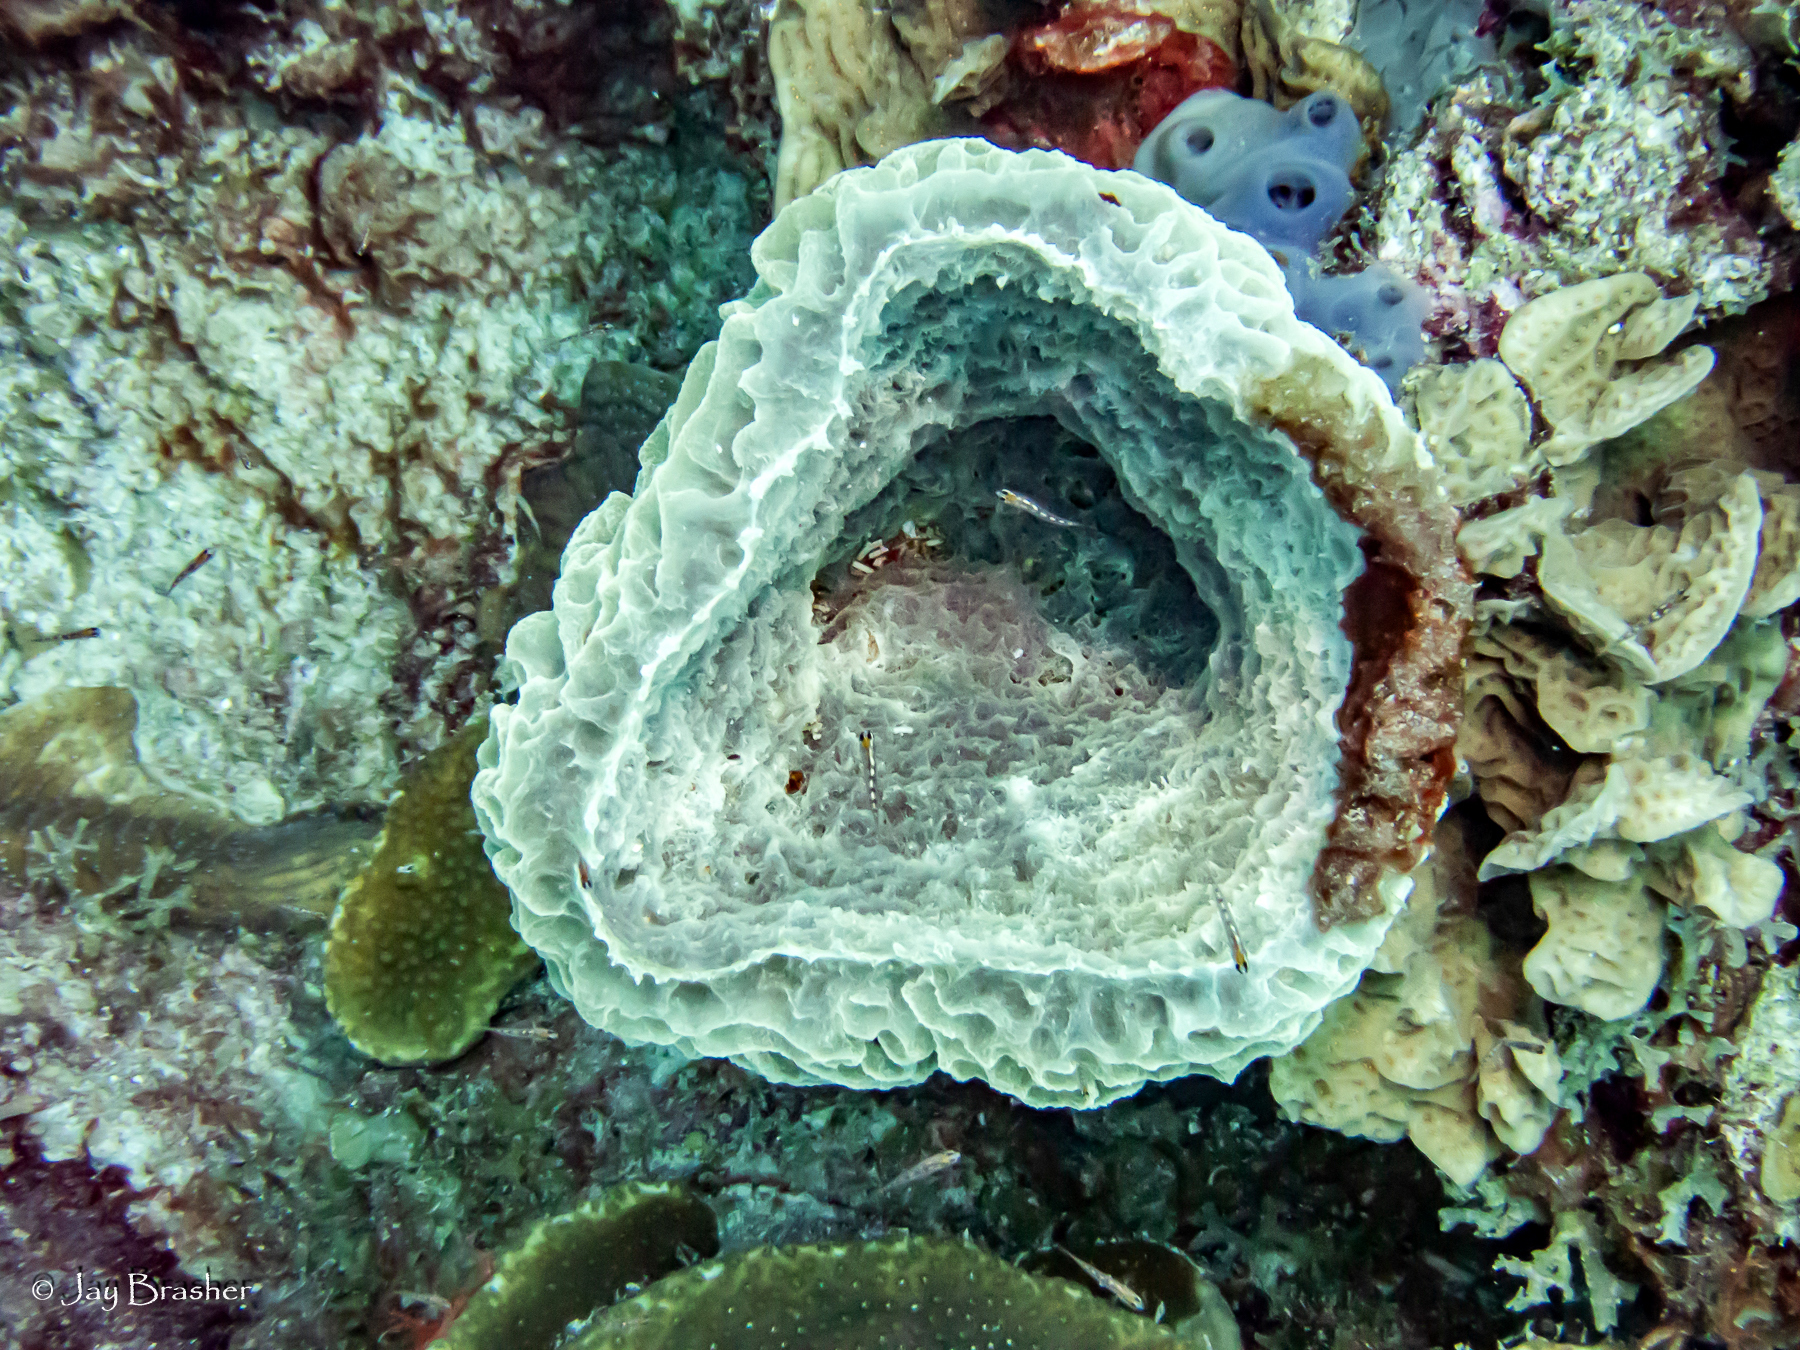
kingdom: Animalia
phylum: Porifera
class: Demospongiae
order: Haplosclerida
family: Callyspongiidae
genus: Callyspongia
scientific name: Callyspongia fallax
